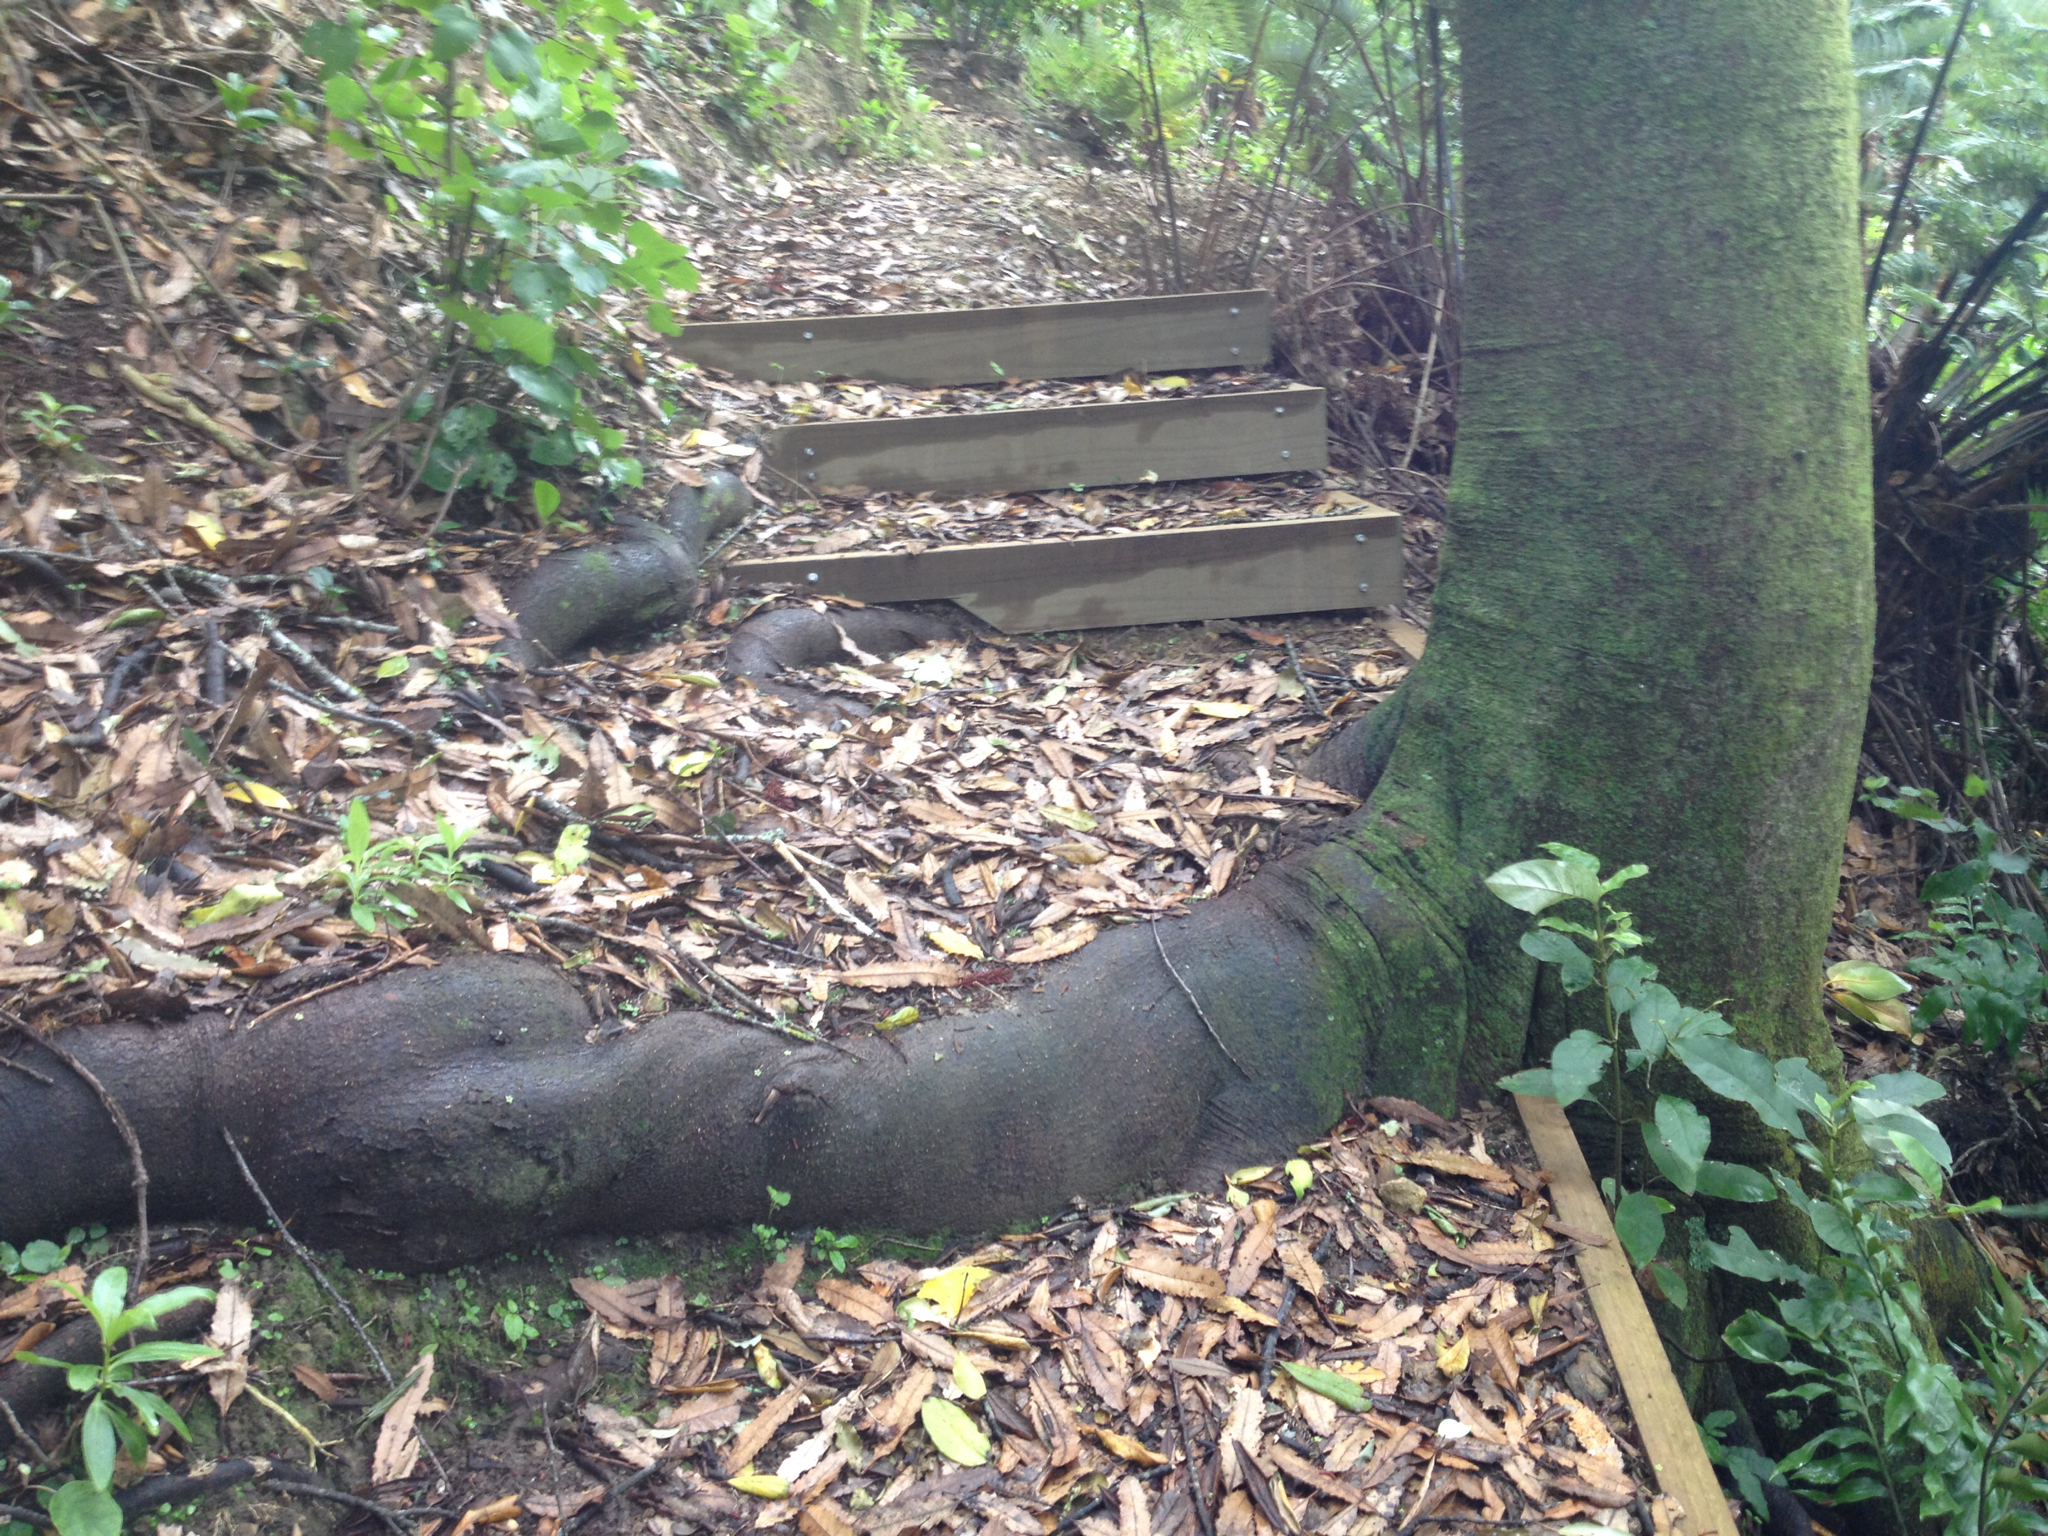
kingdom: Plantae
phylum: Tracheophyta
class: Magnoliopsida
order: Proteales
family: Proteaceae
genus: Knightia
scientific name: Knightia excelsa
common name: New zealand-honeysuckle
